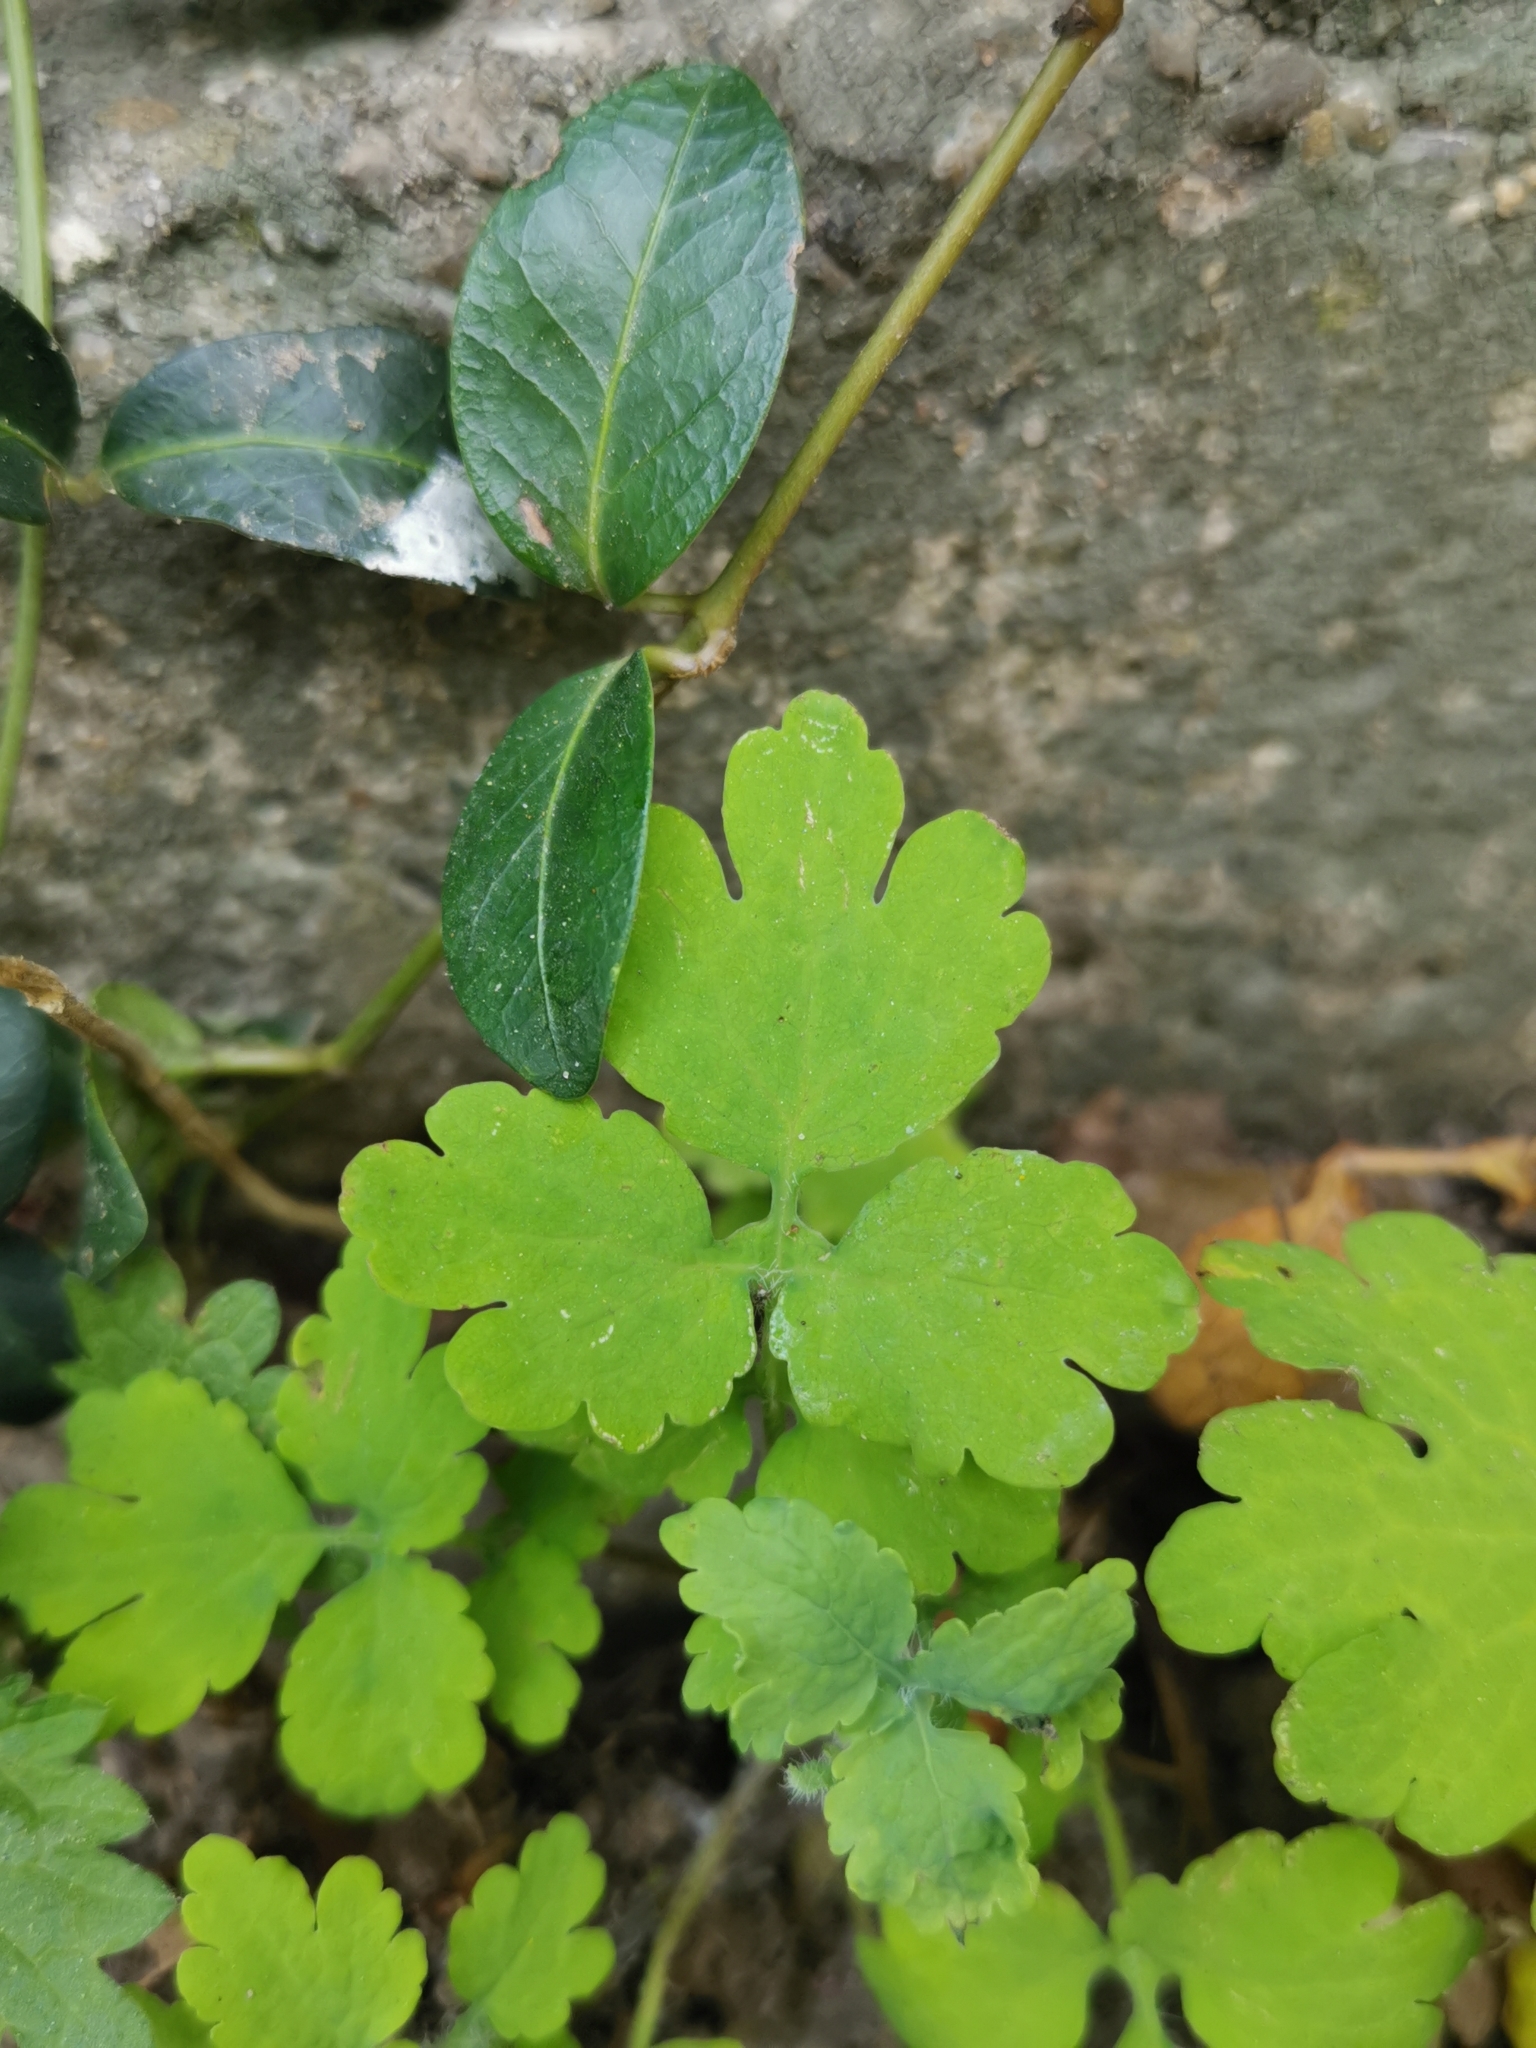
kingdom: Plantae
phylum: Tracheophyta
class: Magnoliopsida
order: Ranunculales
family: Papaveraceae
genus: Chelidonium
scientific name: Chelidonium majus
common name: Greater celandine
